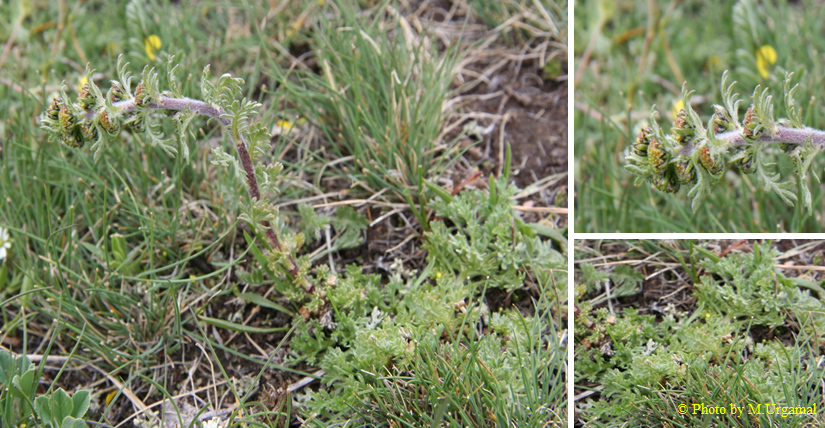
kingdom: Plantae
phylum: Tracheophyta
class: Magnoliopsida
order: Asterales
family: Asteraceae
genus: Artemisia
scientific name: Artemisia rupestris
